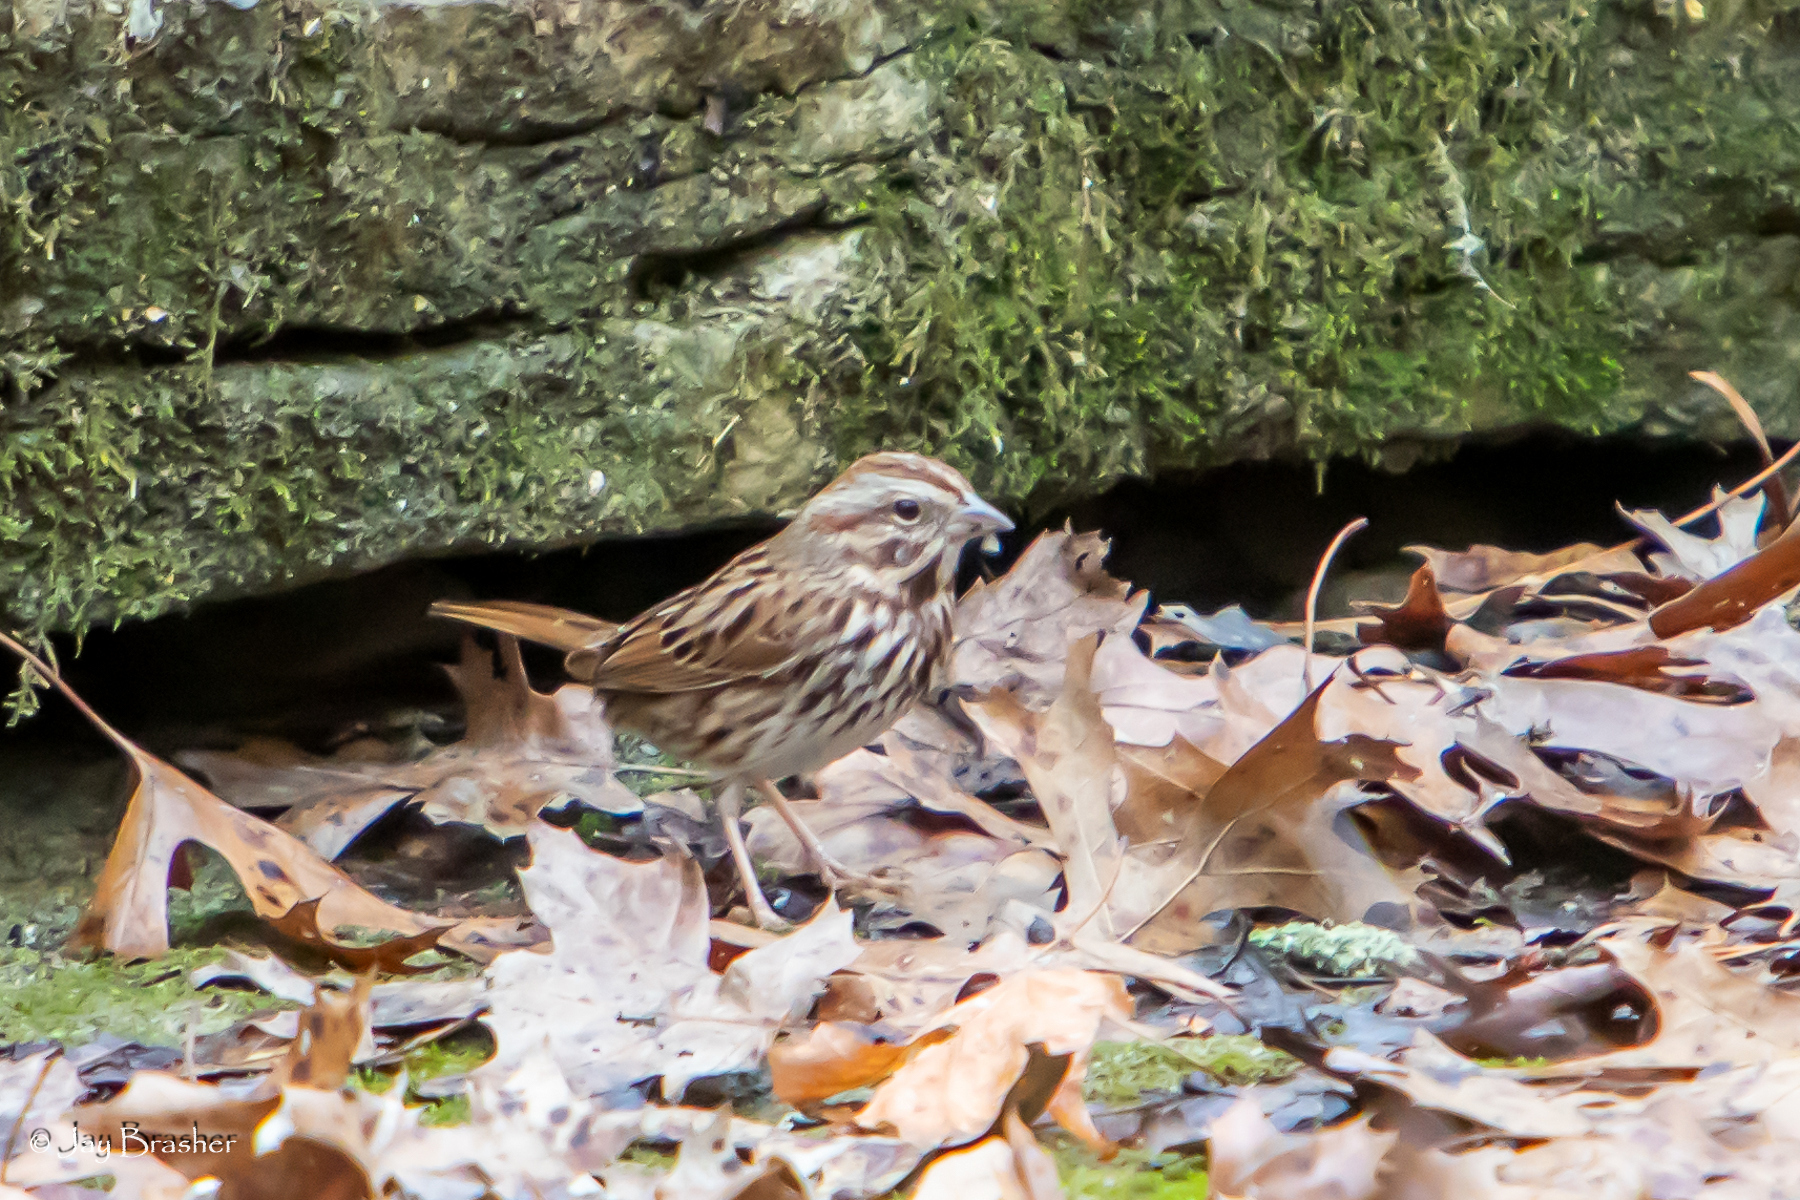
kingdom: Animalia
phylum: Chordata
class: Aves
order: Passeriformes
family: Passerellidae
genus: Melospiza
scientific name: Melospiza melodia
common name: Song sparrow
